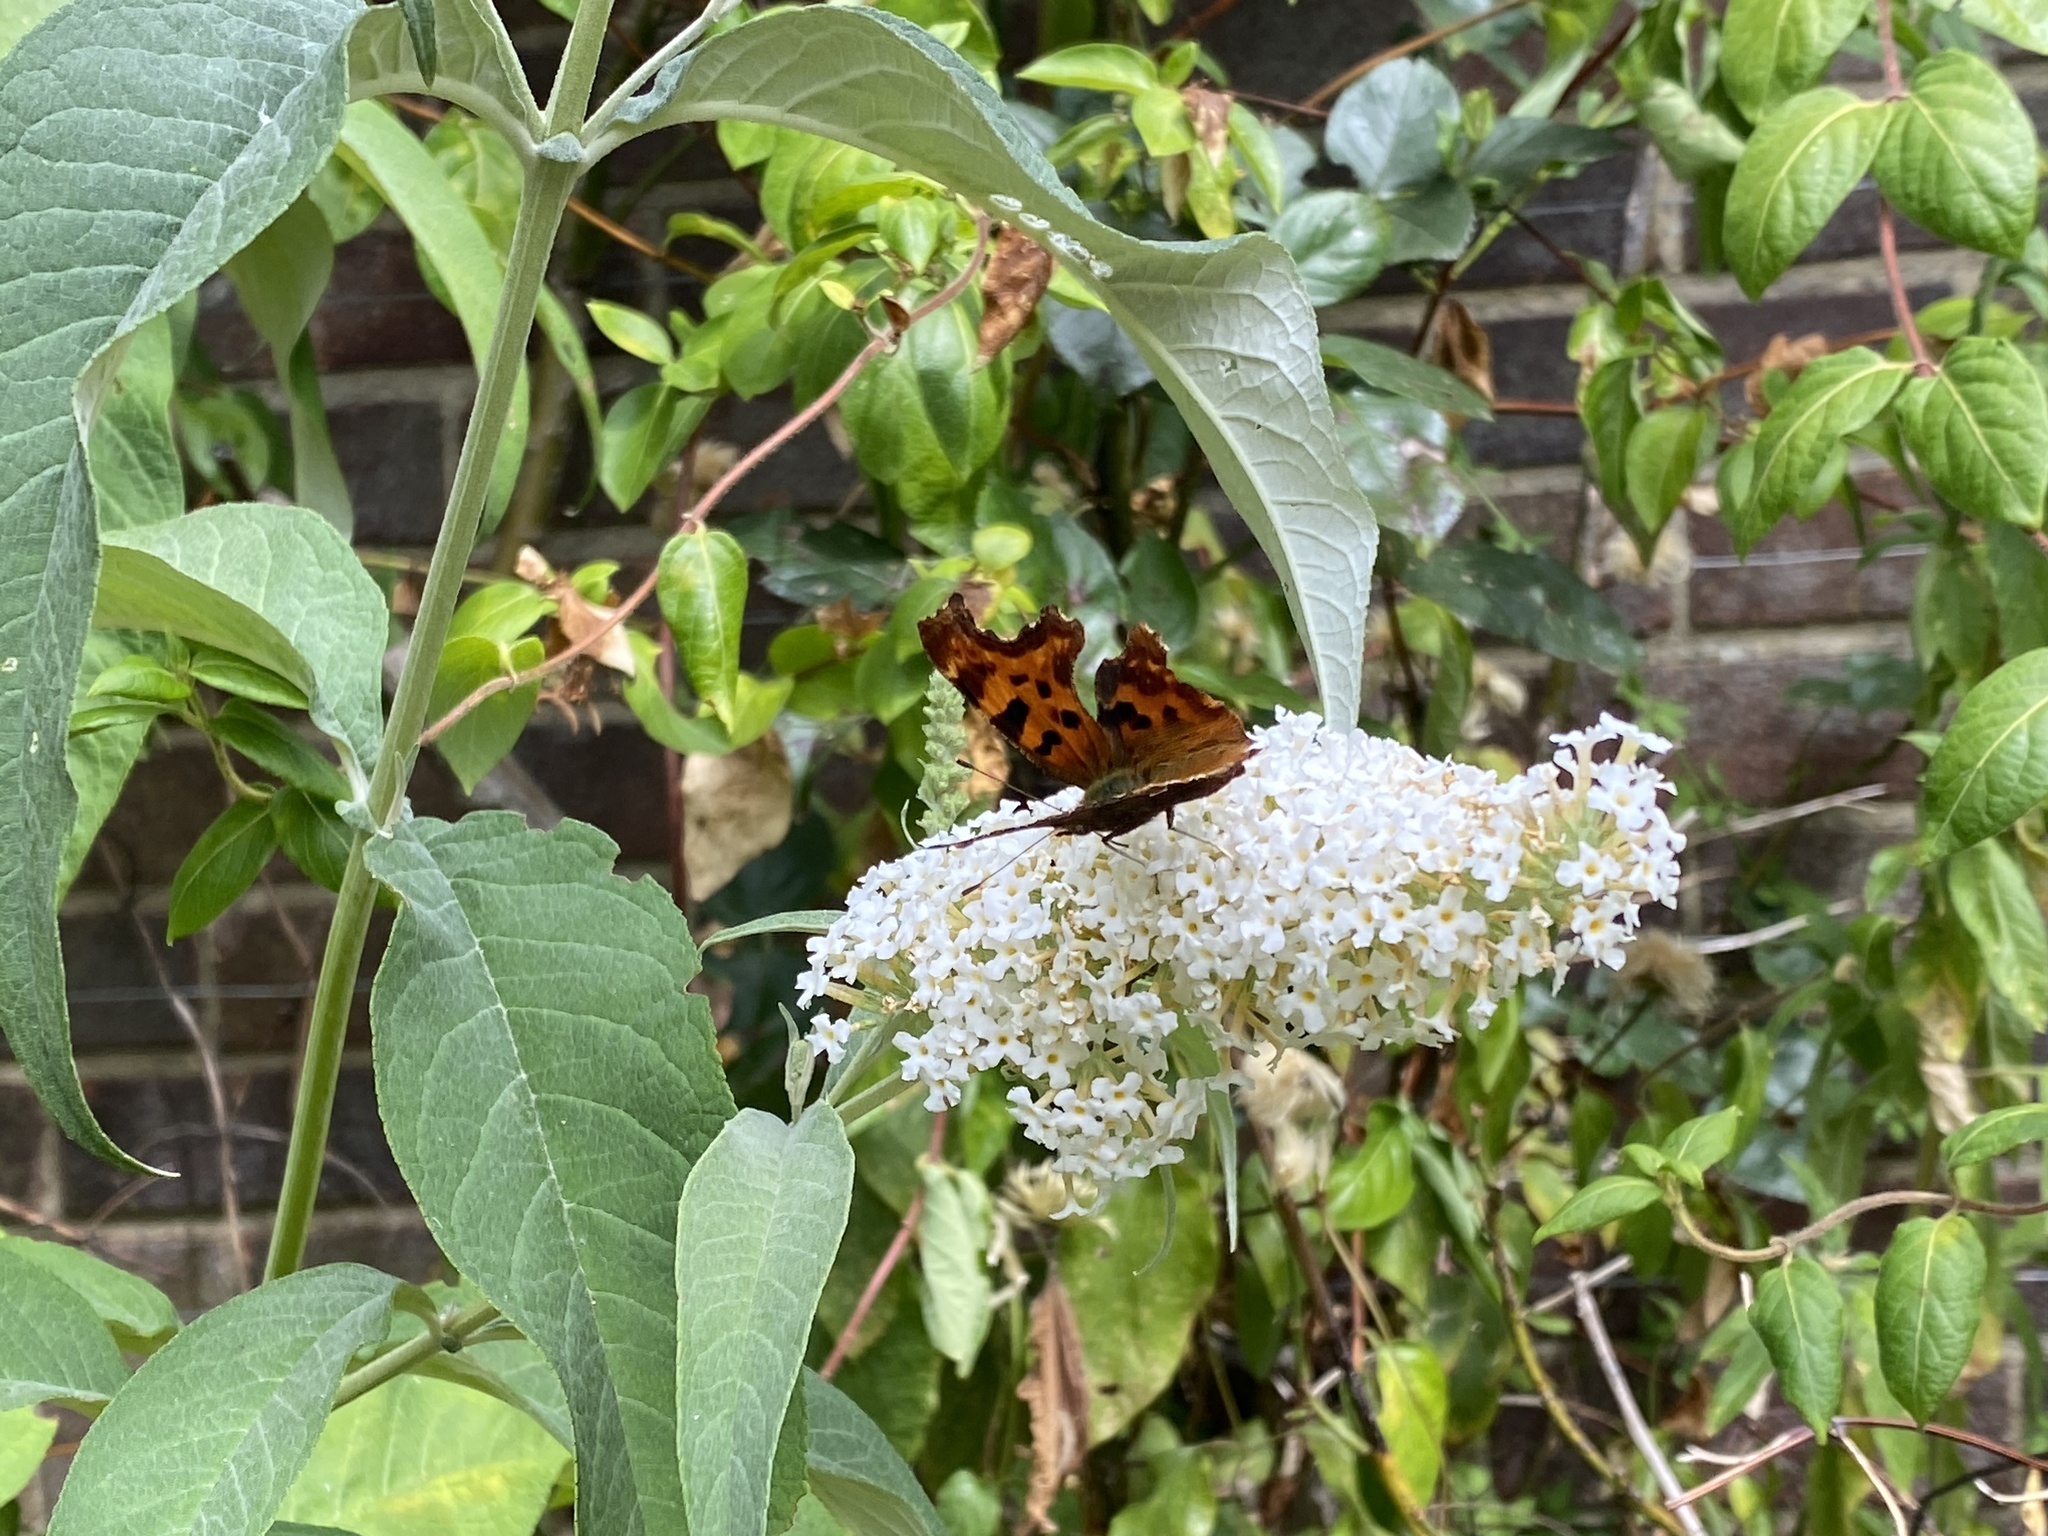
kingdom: Animalia
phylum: Arthropoda
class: Insecta
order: Lepidoptera
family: Nymphalidae
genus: Polygonia
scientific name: Polygonia c-album
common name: Comma
